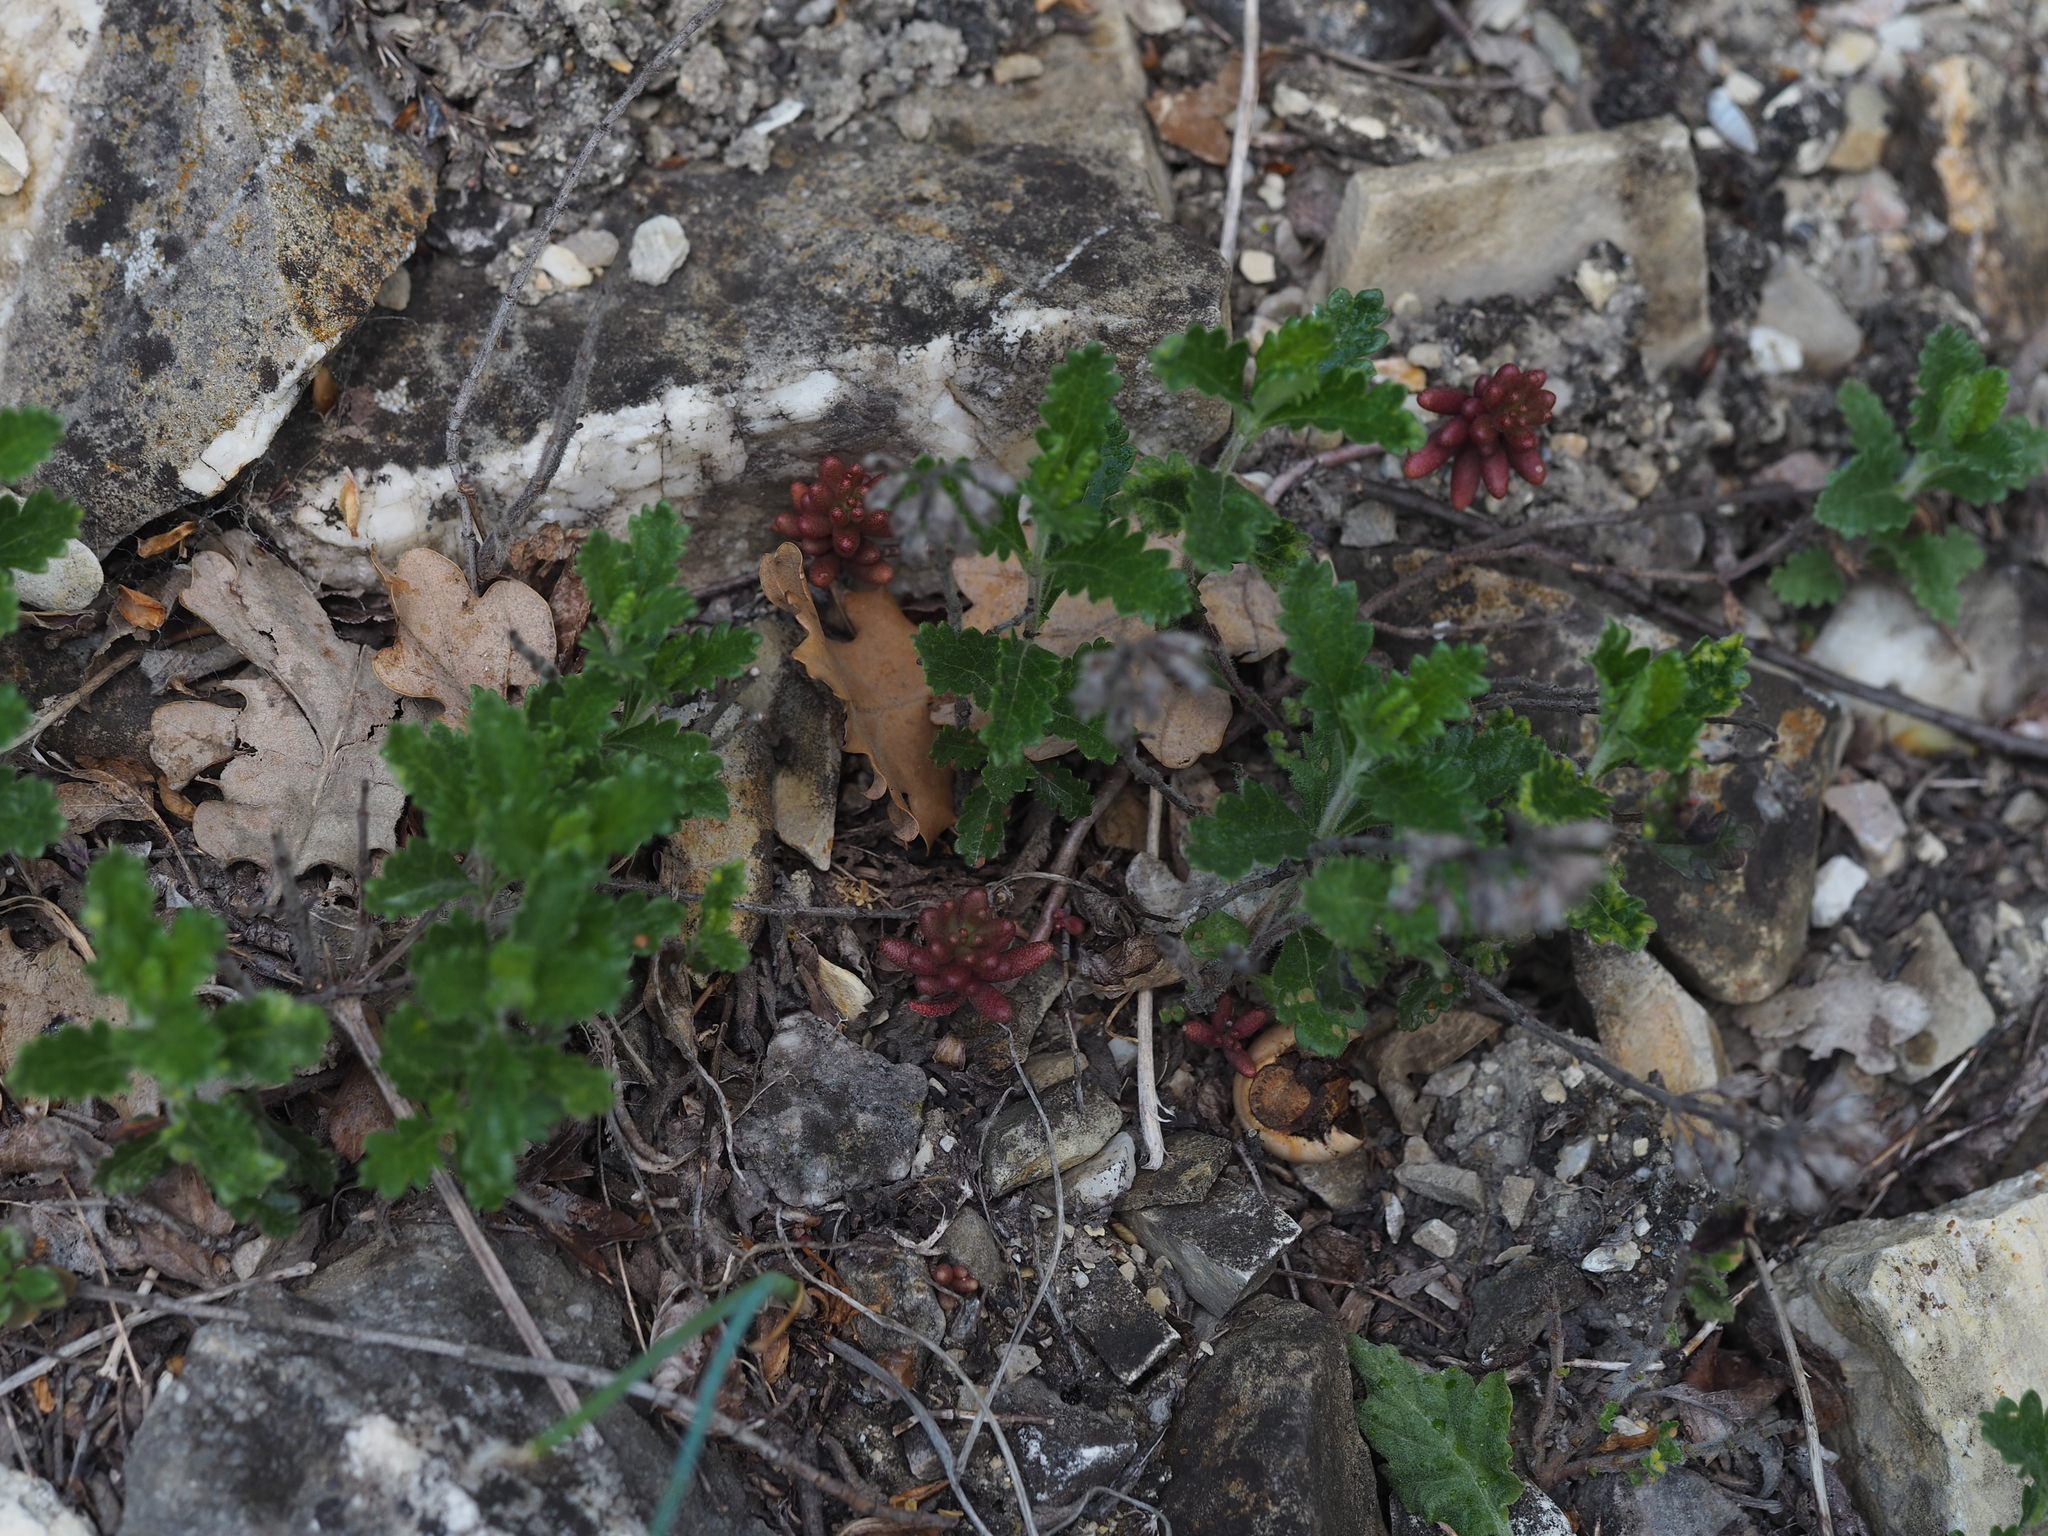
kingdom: Plantae
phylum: Tracheophyta
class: Magnoliopsida
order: Lamiales
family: Lamiaceae
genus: Teucrium
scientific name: Teucrium chamaedrys
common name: Wall germander
